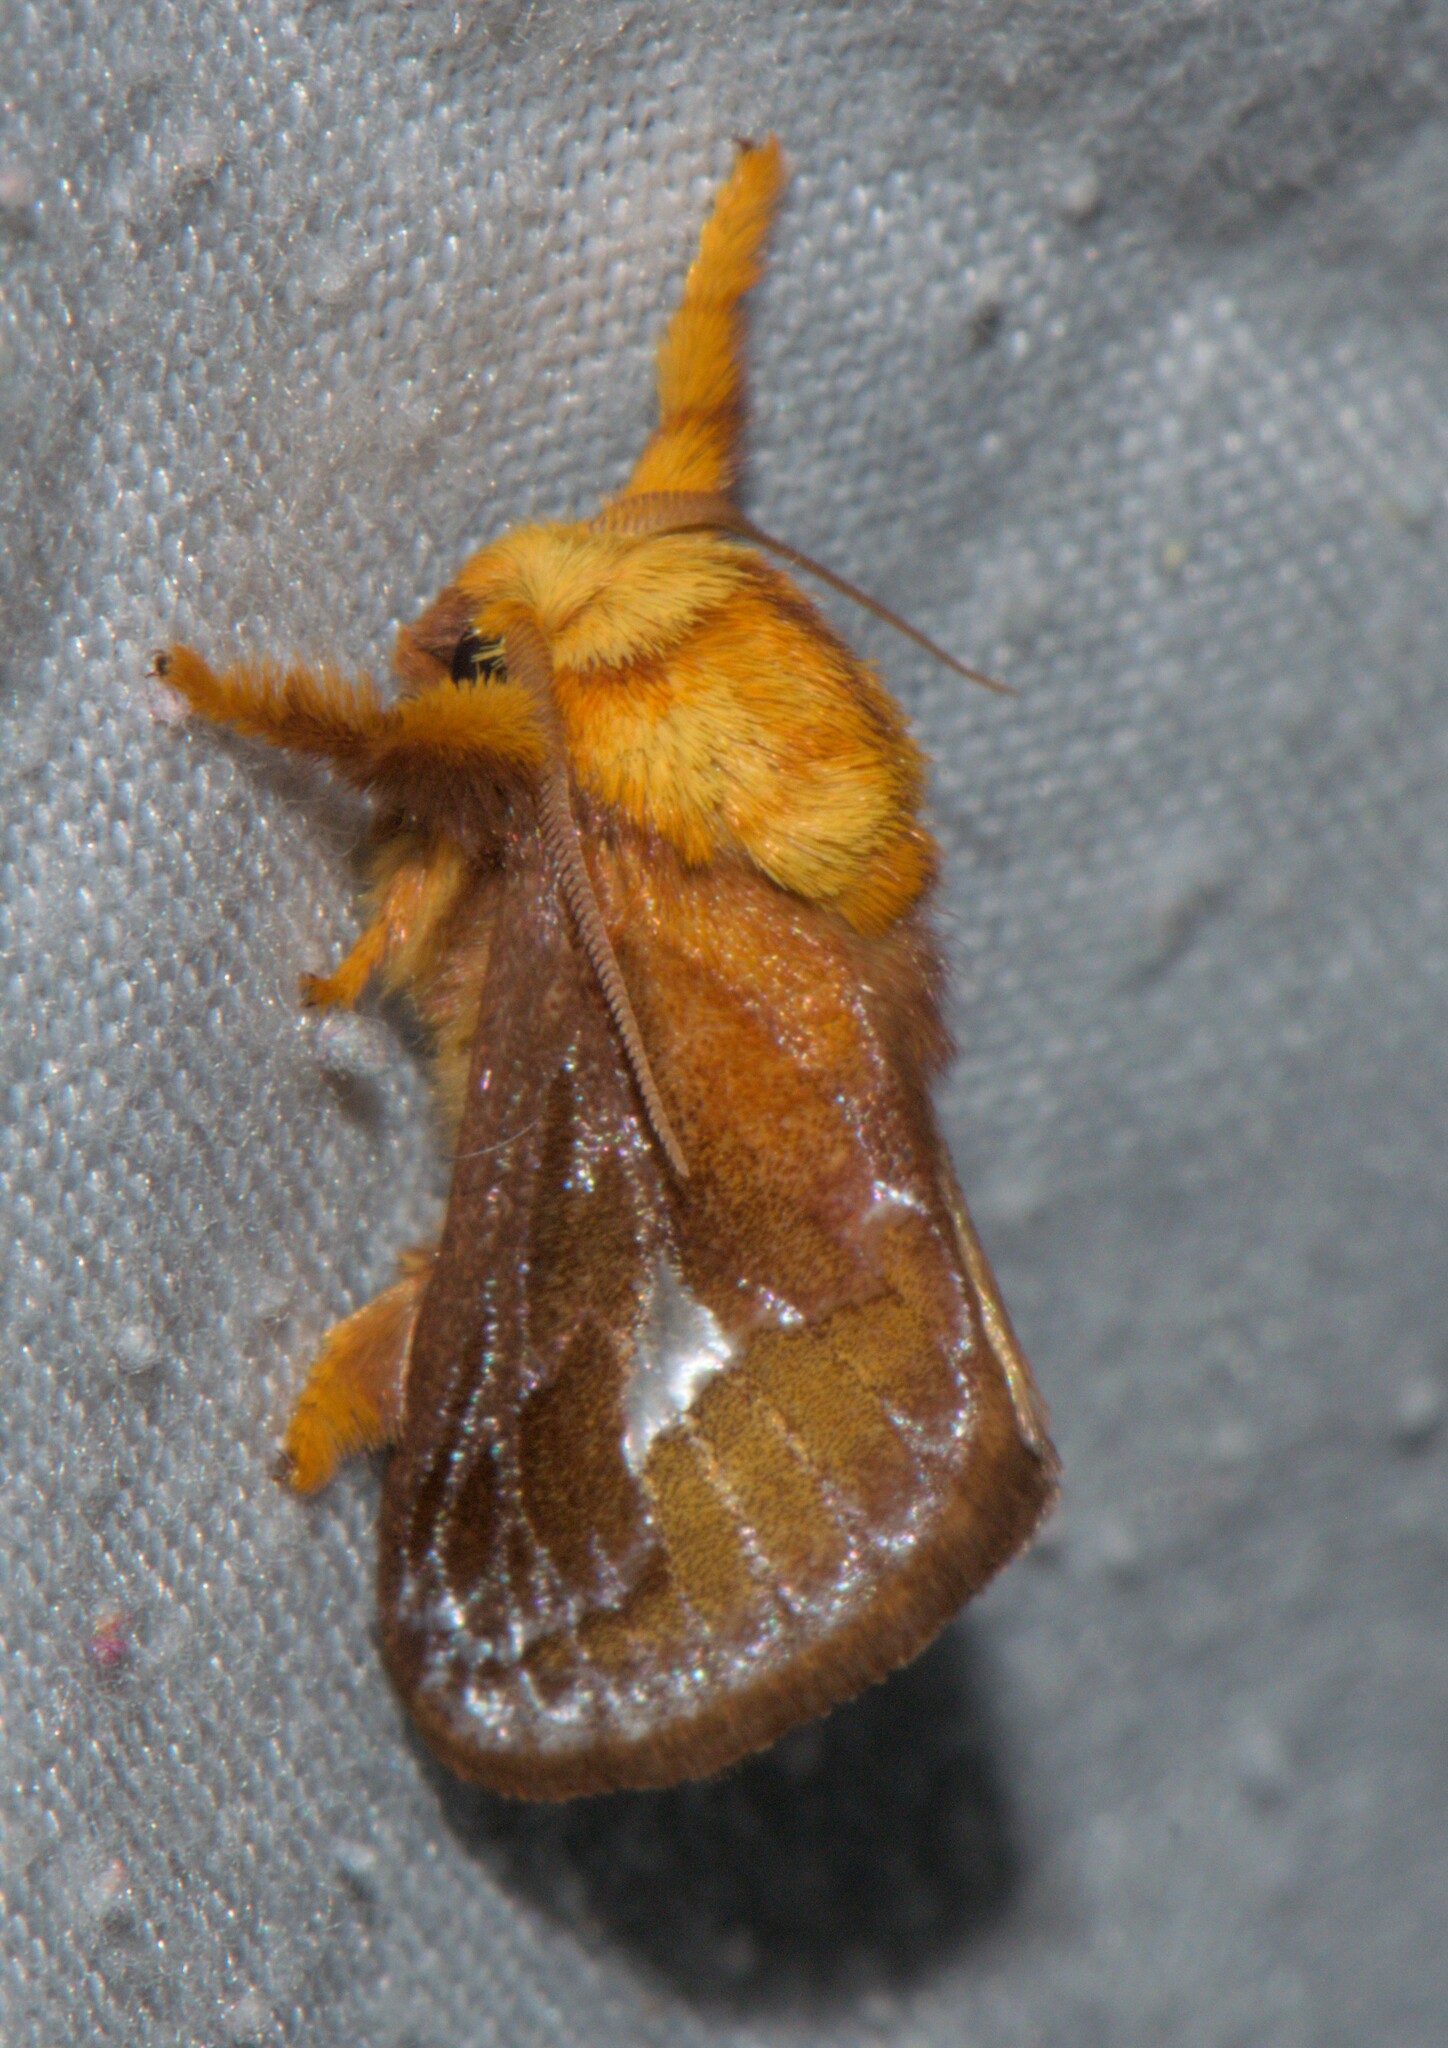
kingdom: Animalia
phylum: Arthropoda
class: Insecta
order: Lepidoptera
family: Limacodidae
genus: Miresa
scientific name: Miresa bracteata
